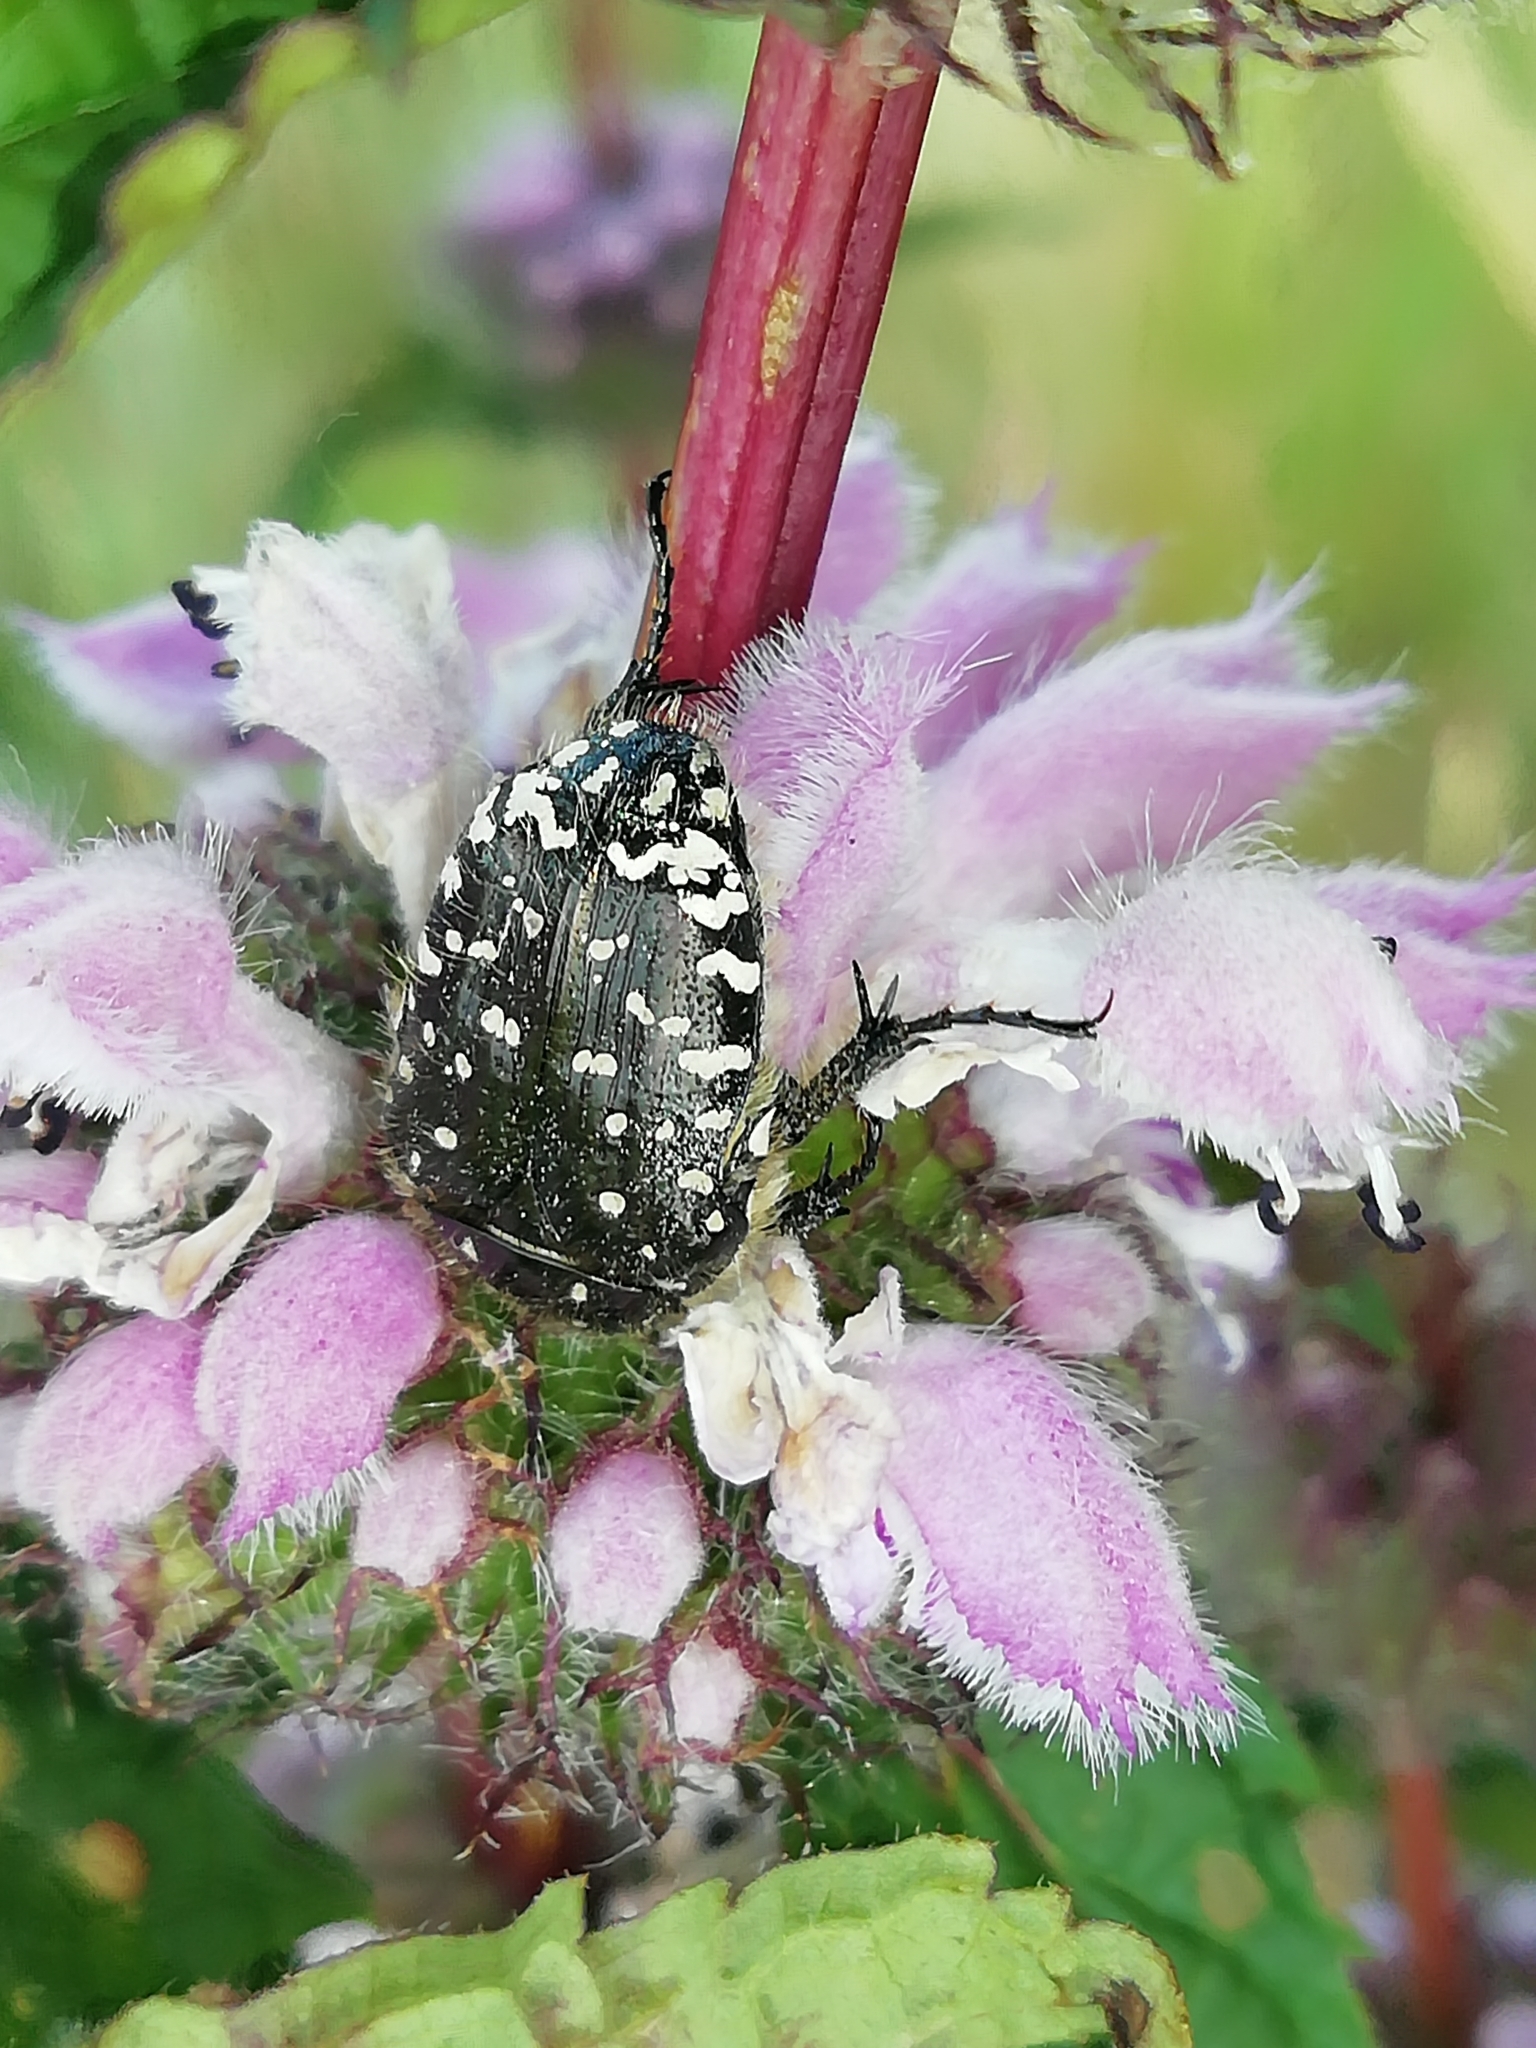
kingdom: Animalia
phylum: Arthropoda
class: Insecta
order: Coleoptera
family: Scarabaeidae
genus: Oxythyrea
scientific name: Oxythyrea funesta
